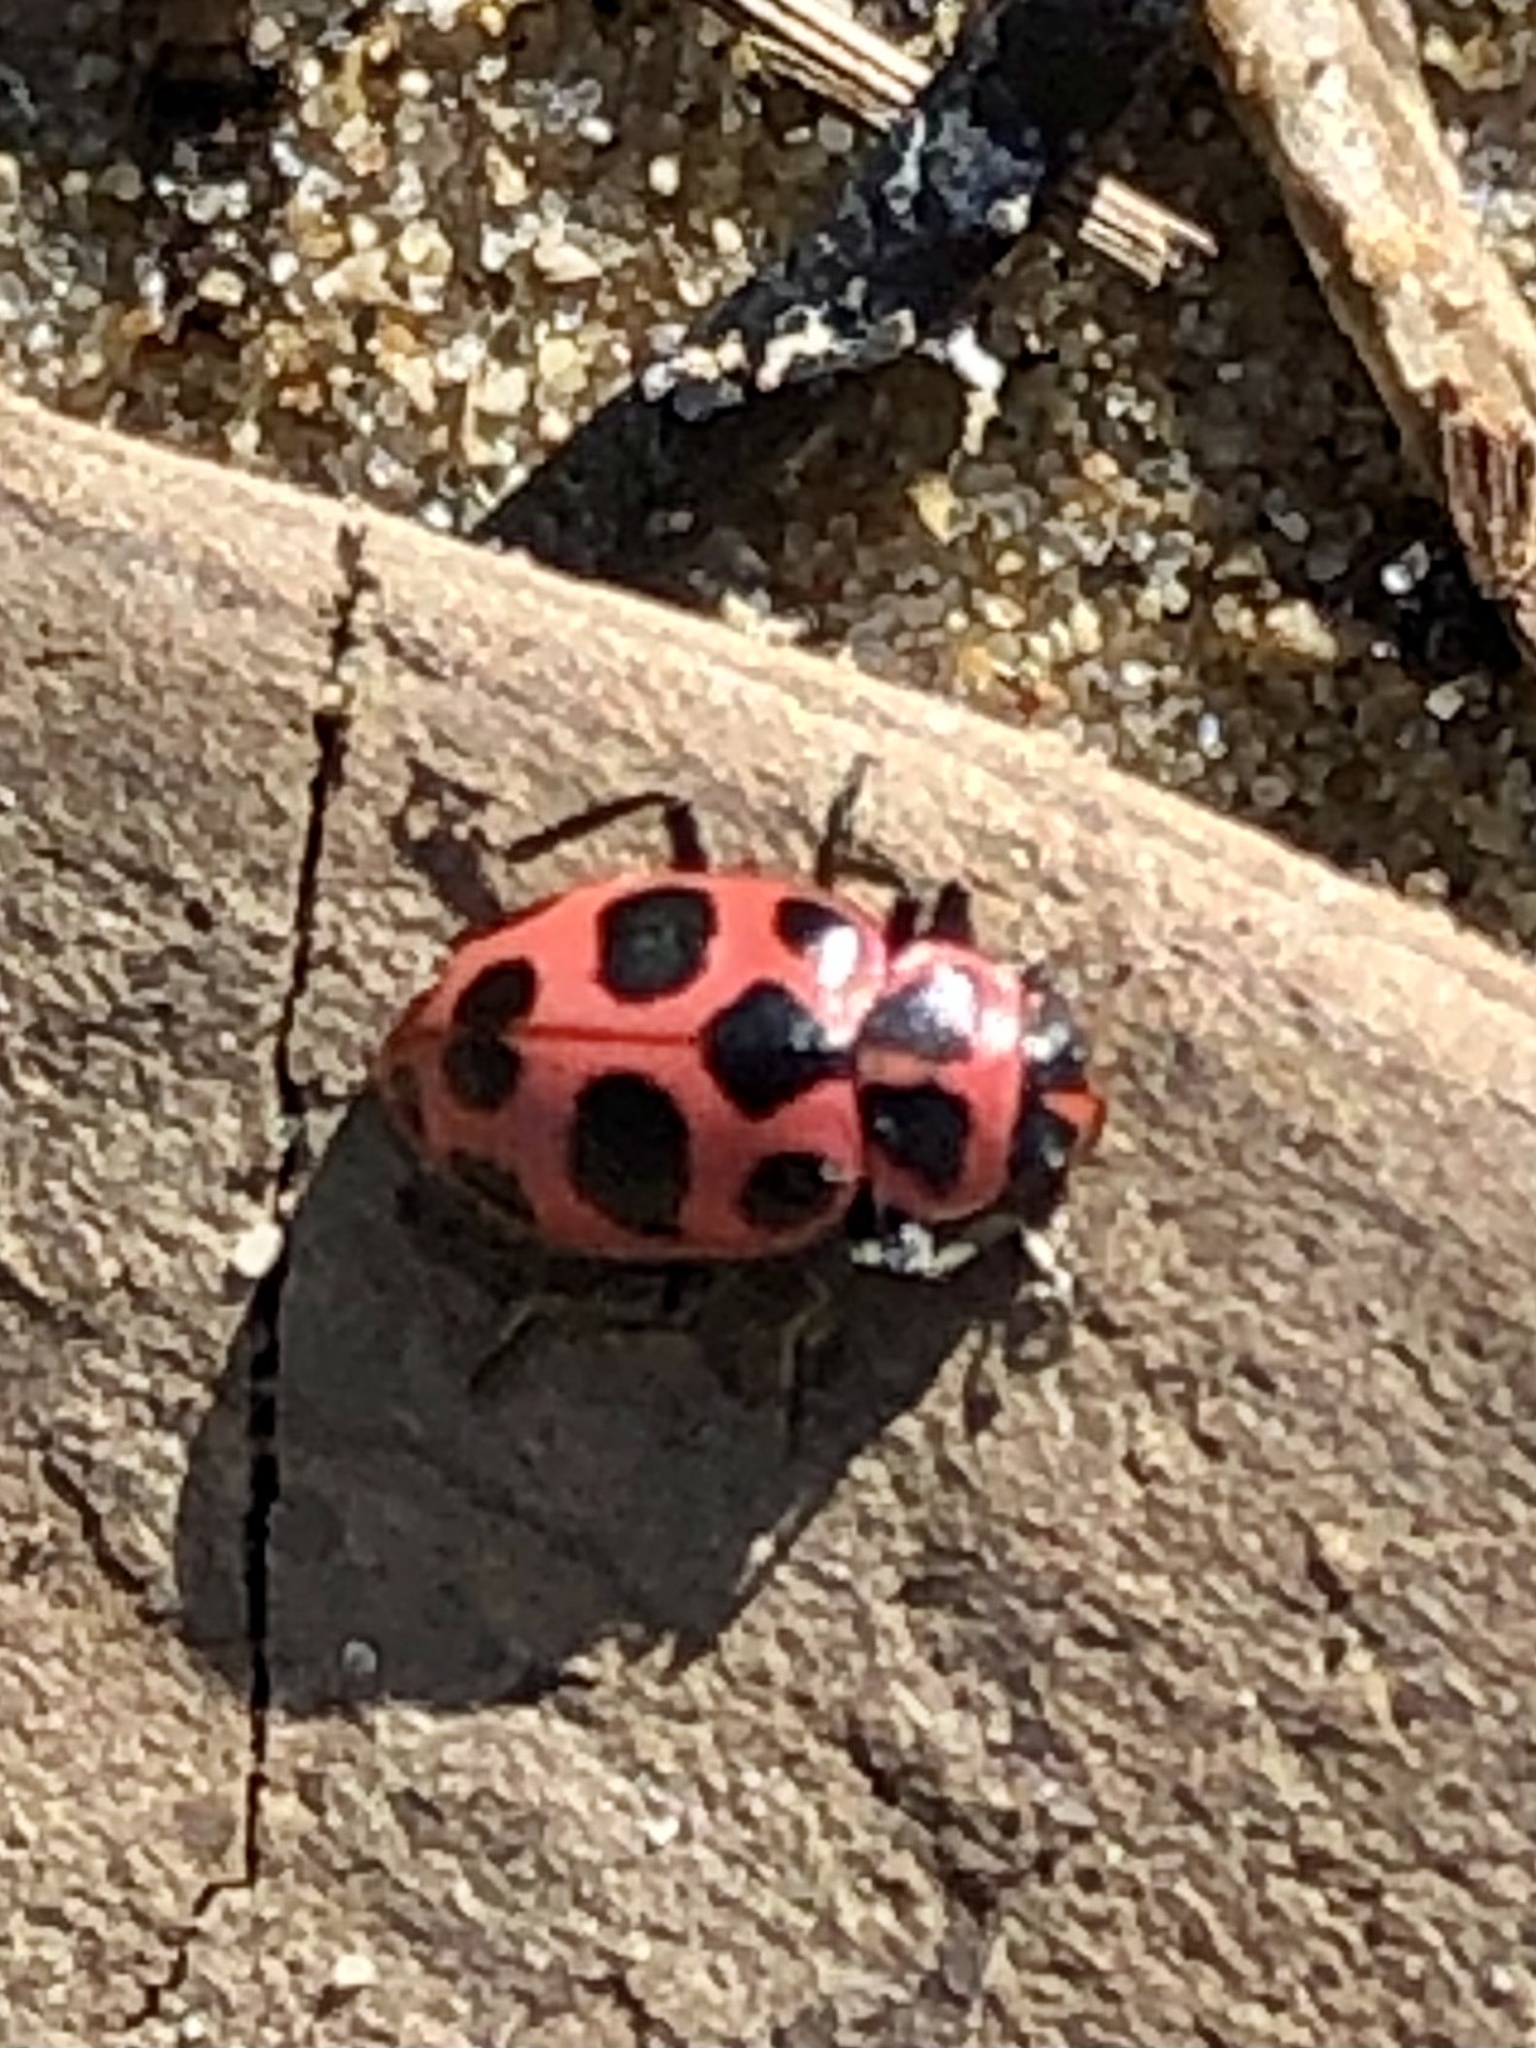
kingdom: Animalia
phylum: Arthropoda
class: Insecta
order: Coleoptera
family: Coccinellidae
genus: Coleomegilla
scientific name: Coleomegilla maculata
